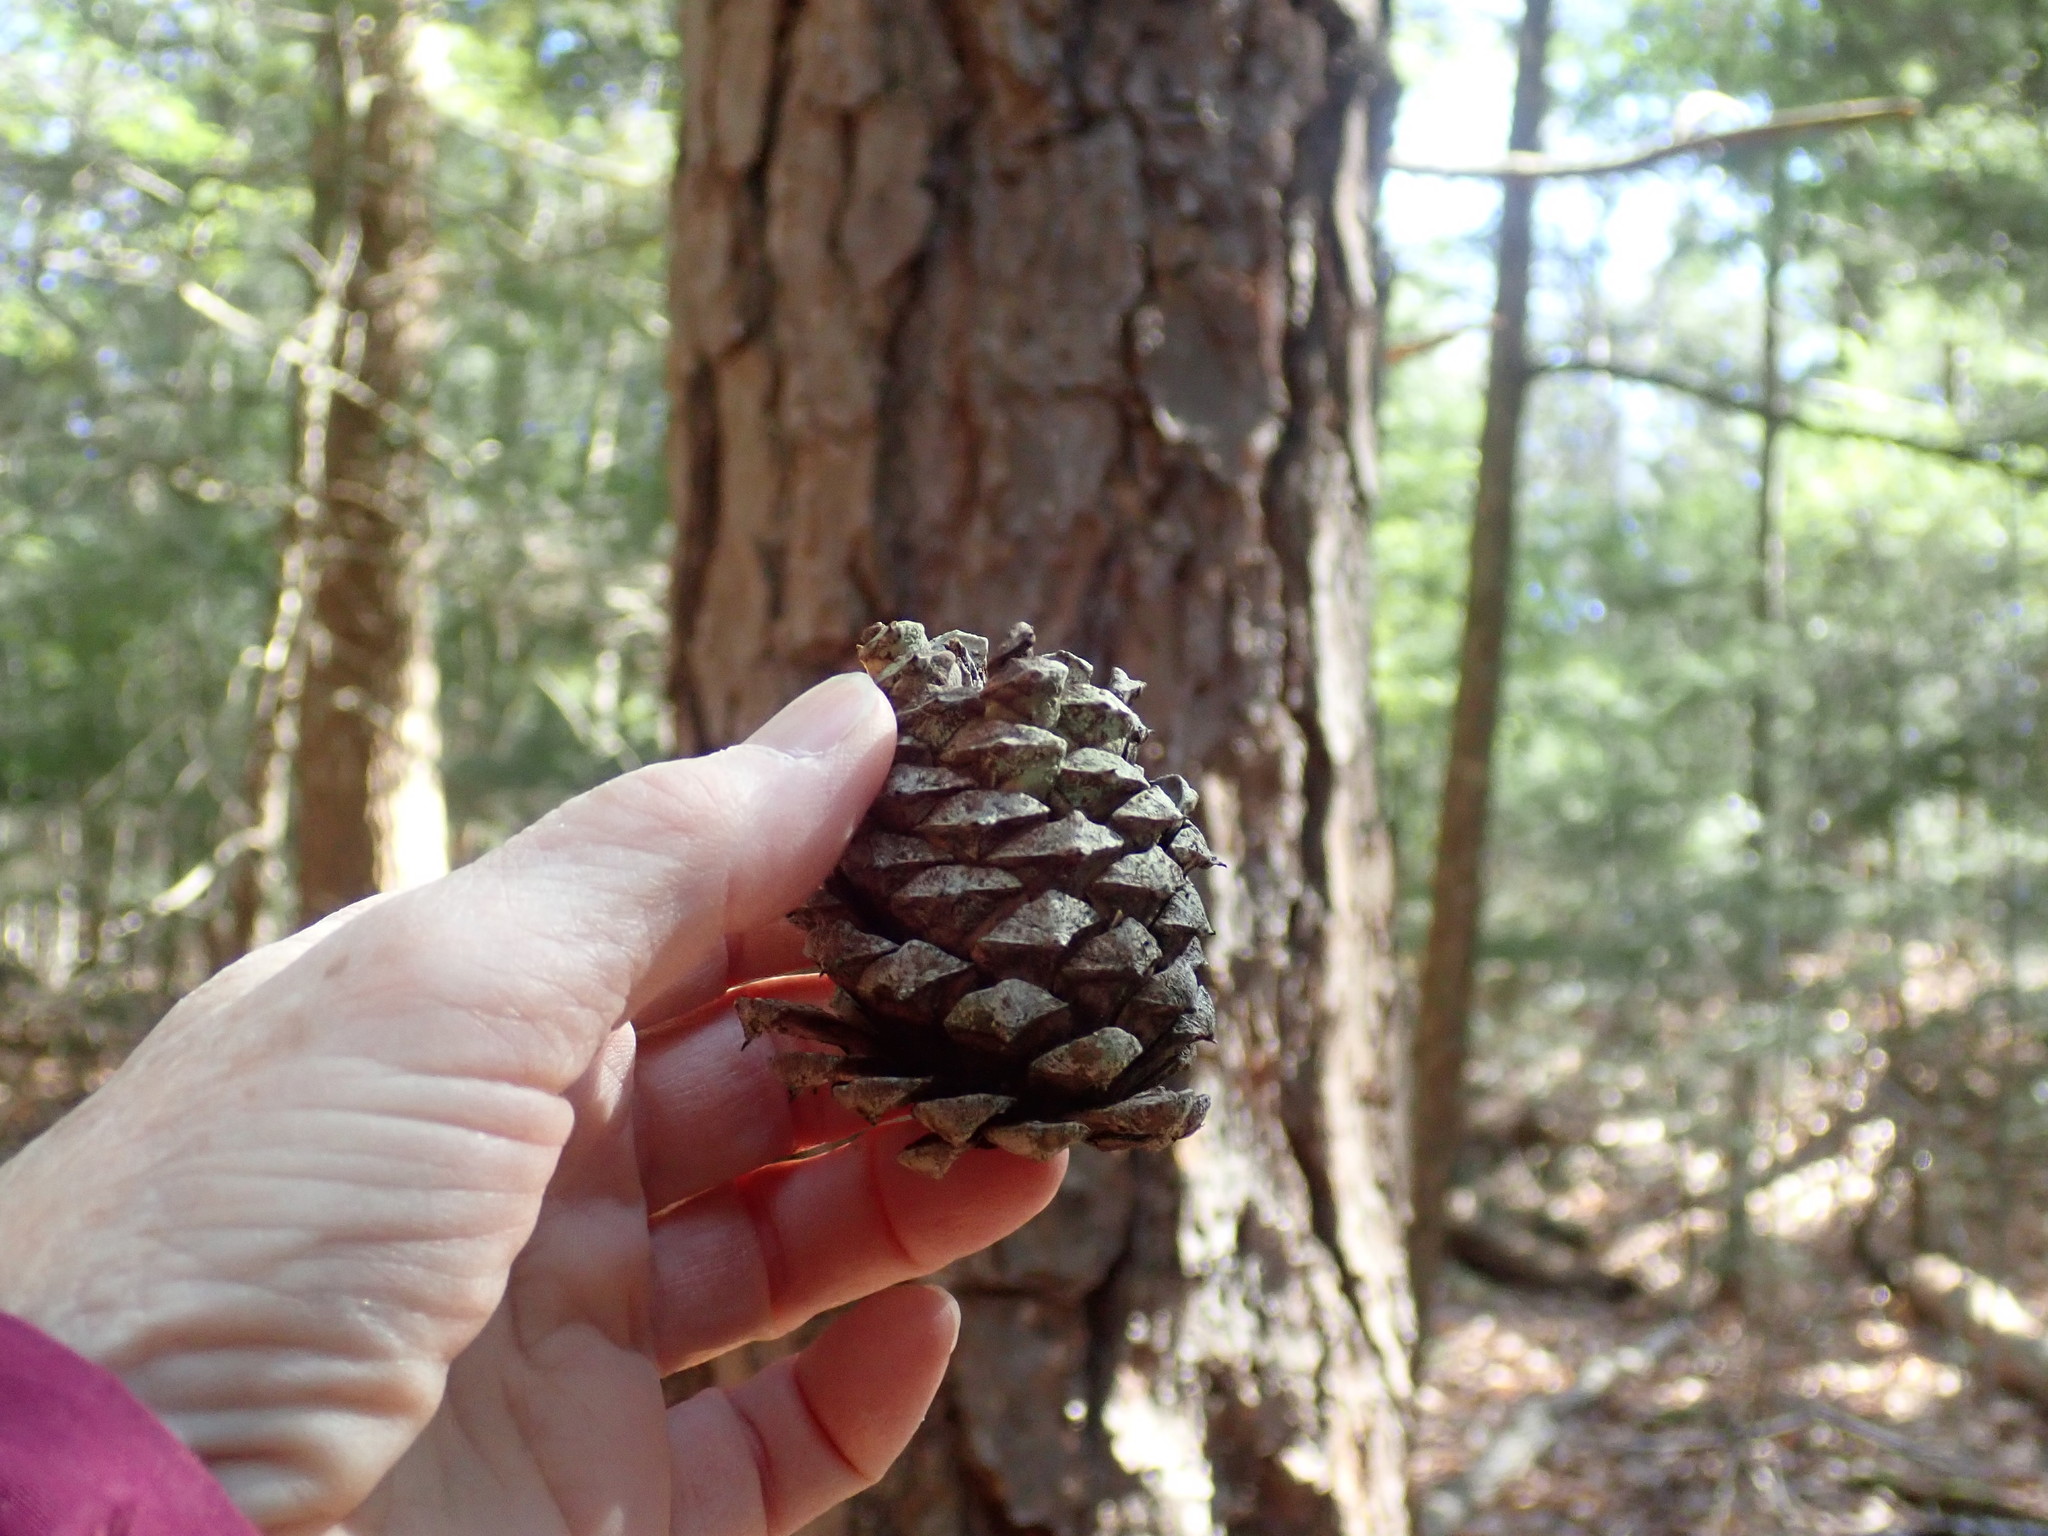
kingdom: Plantae
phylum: Tracheophyta
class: Pinopsida
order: Pinales
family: Pinaceae
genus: Pinus
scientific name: Pinus rigida
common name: Pitch pine
